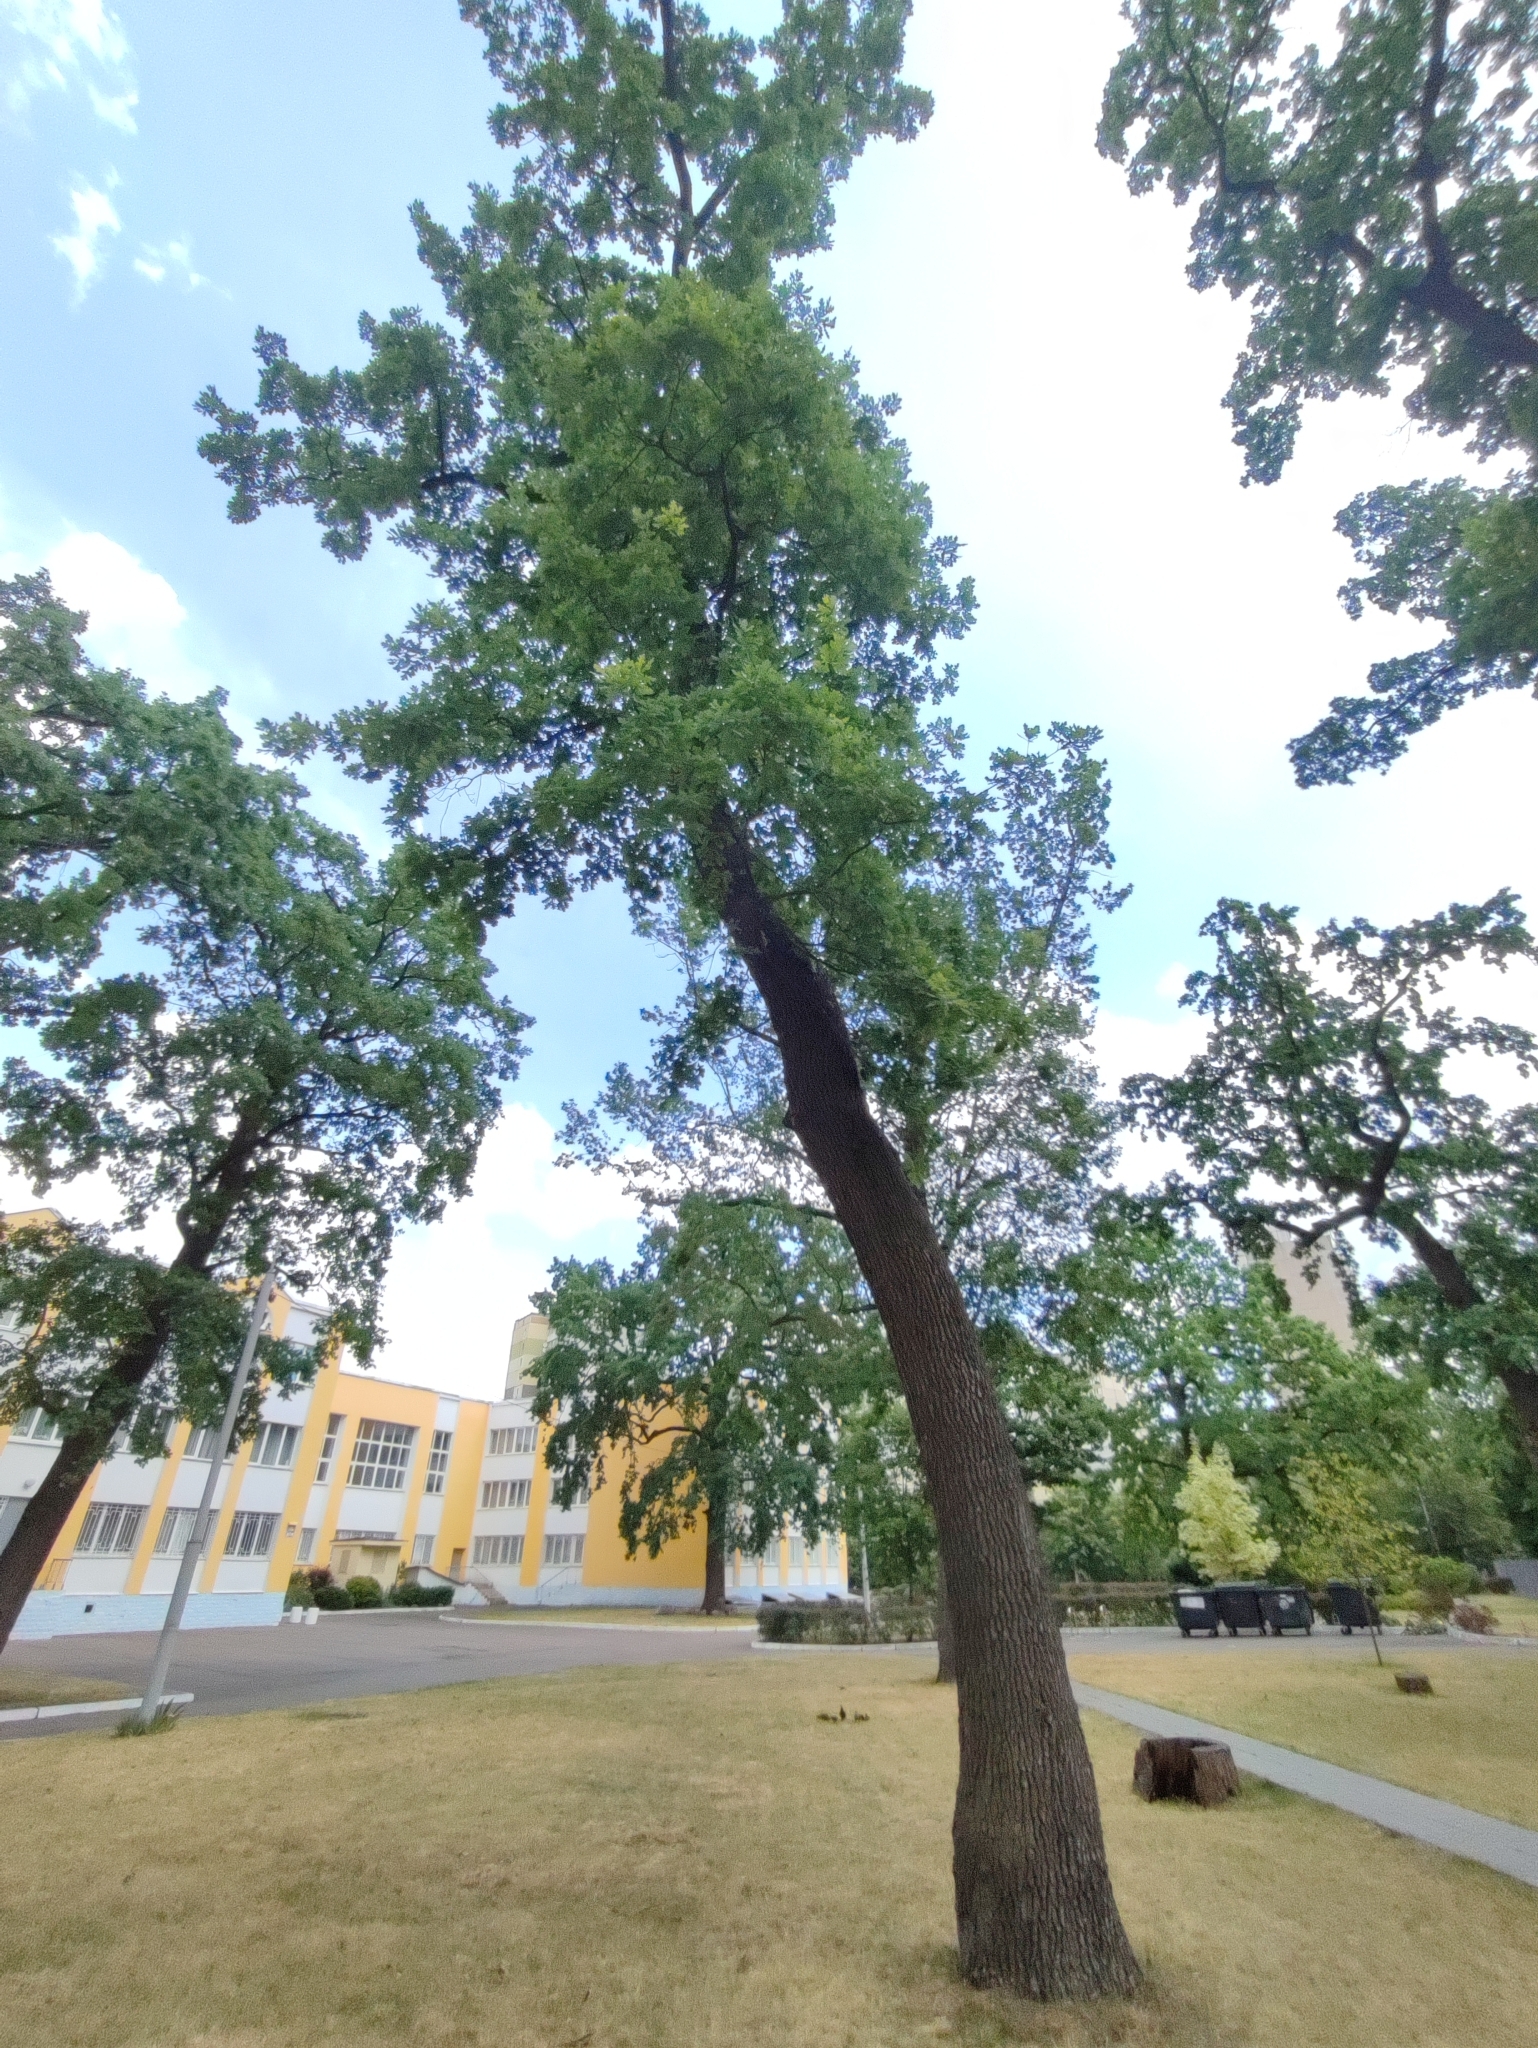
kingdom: Plantae
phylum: Tracheophyta
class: Magnoliopsida
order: Fagales
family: Fagaceae
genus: Quercus
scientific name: Quercus robur
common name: Pedunculate oak
